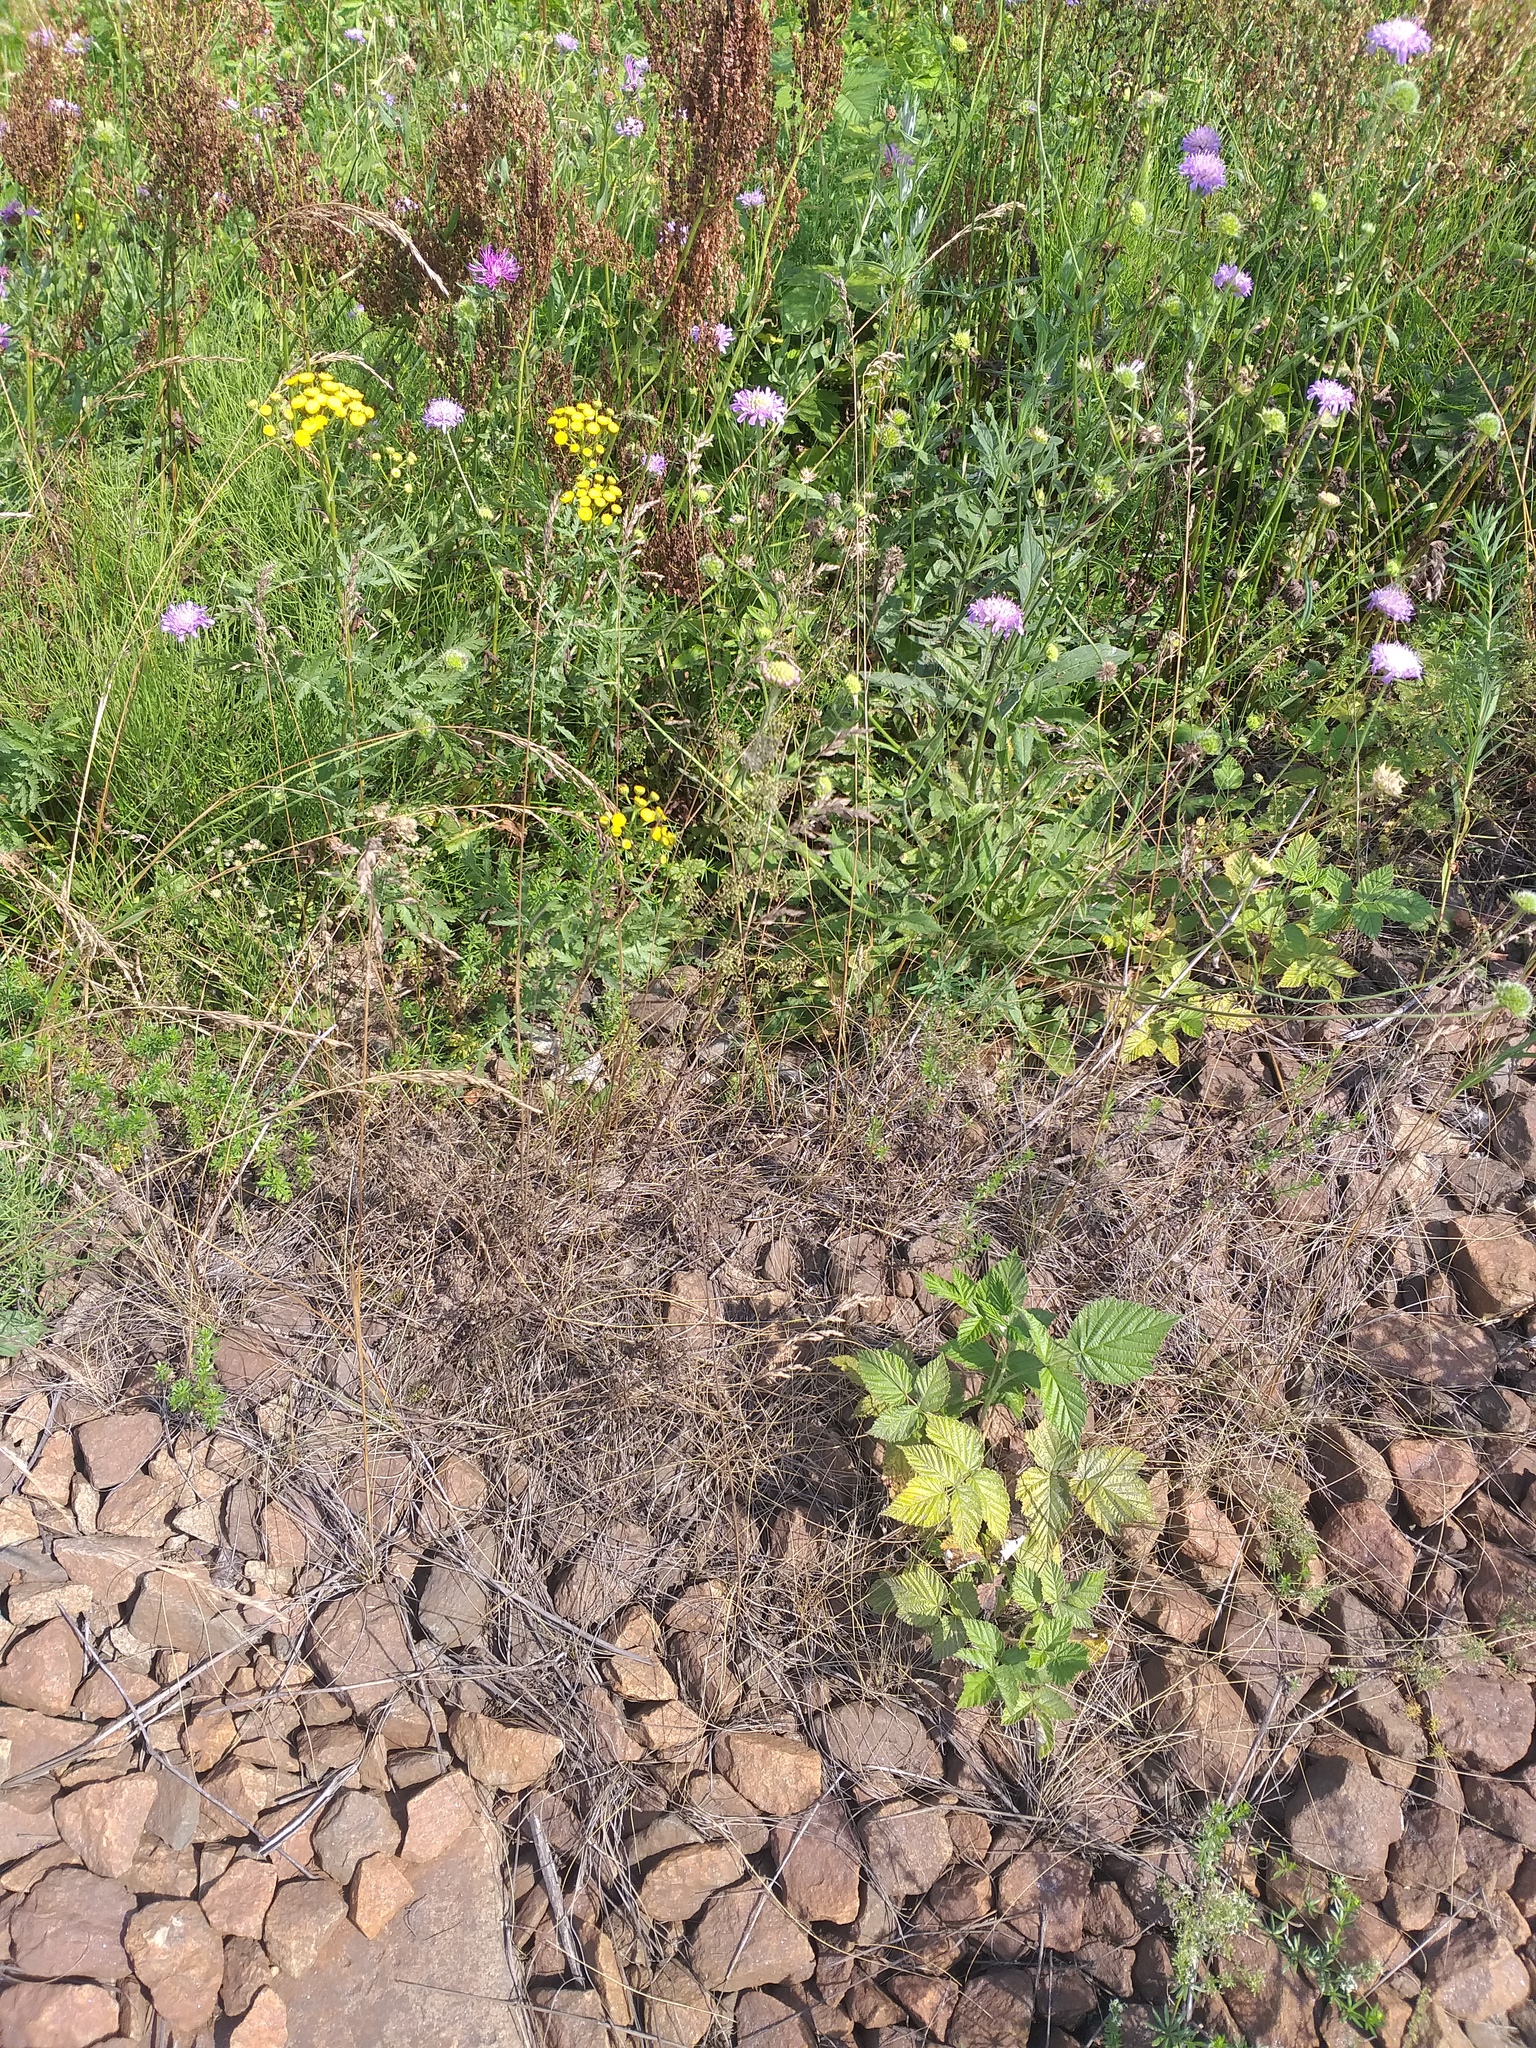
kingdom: Plantae
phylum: Tracheophyta
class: Liliopsida
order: Poales
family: Poaceae
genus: Poa
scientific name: Poa angustifolia
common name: Narrow-leaved meadow-grass
